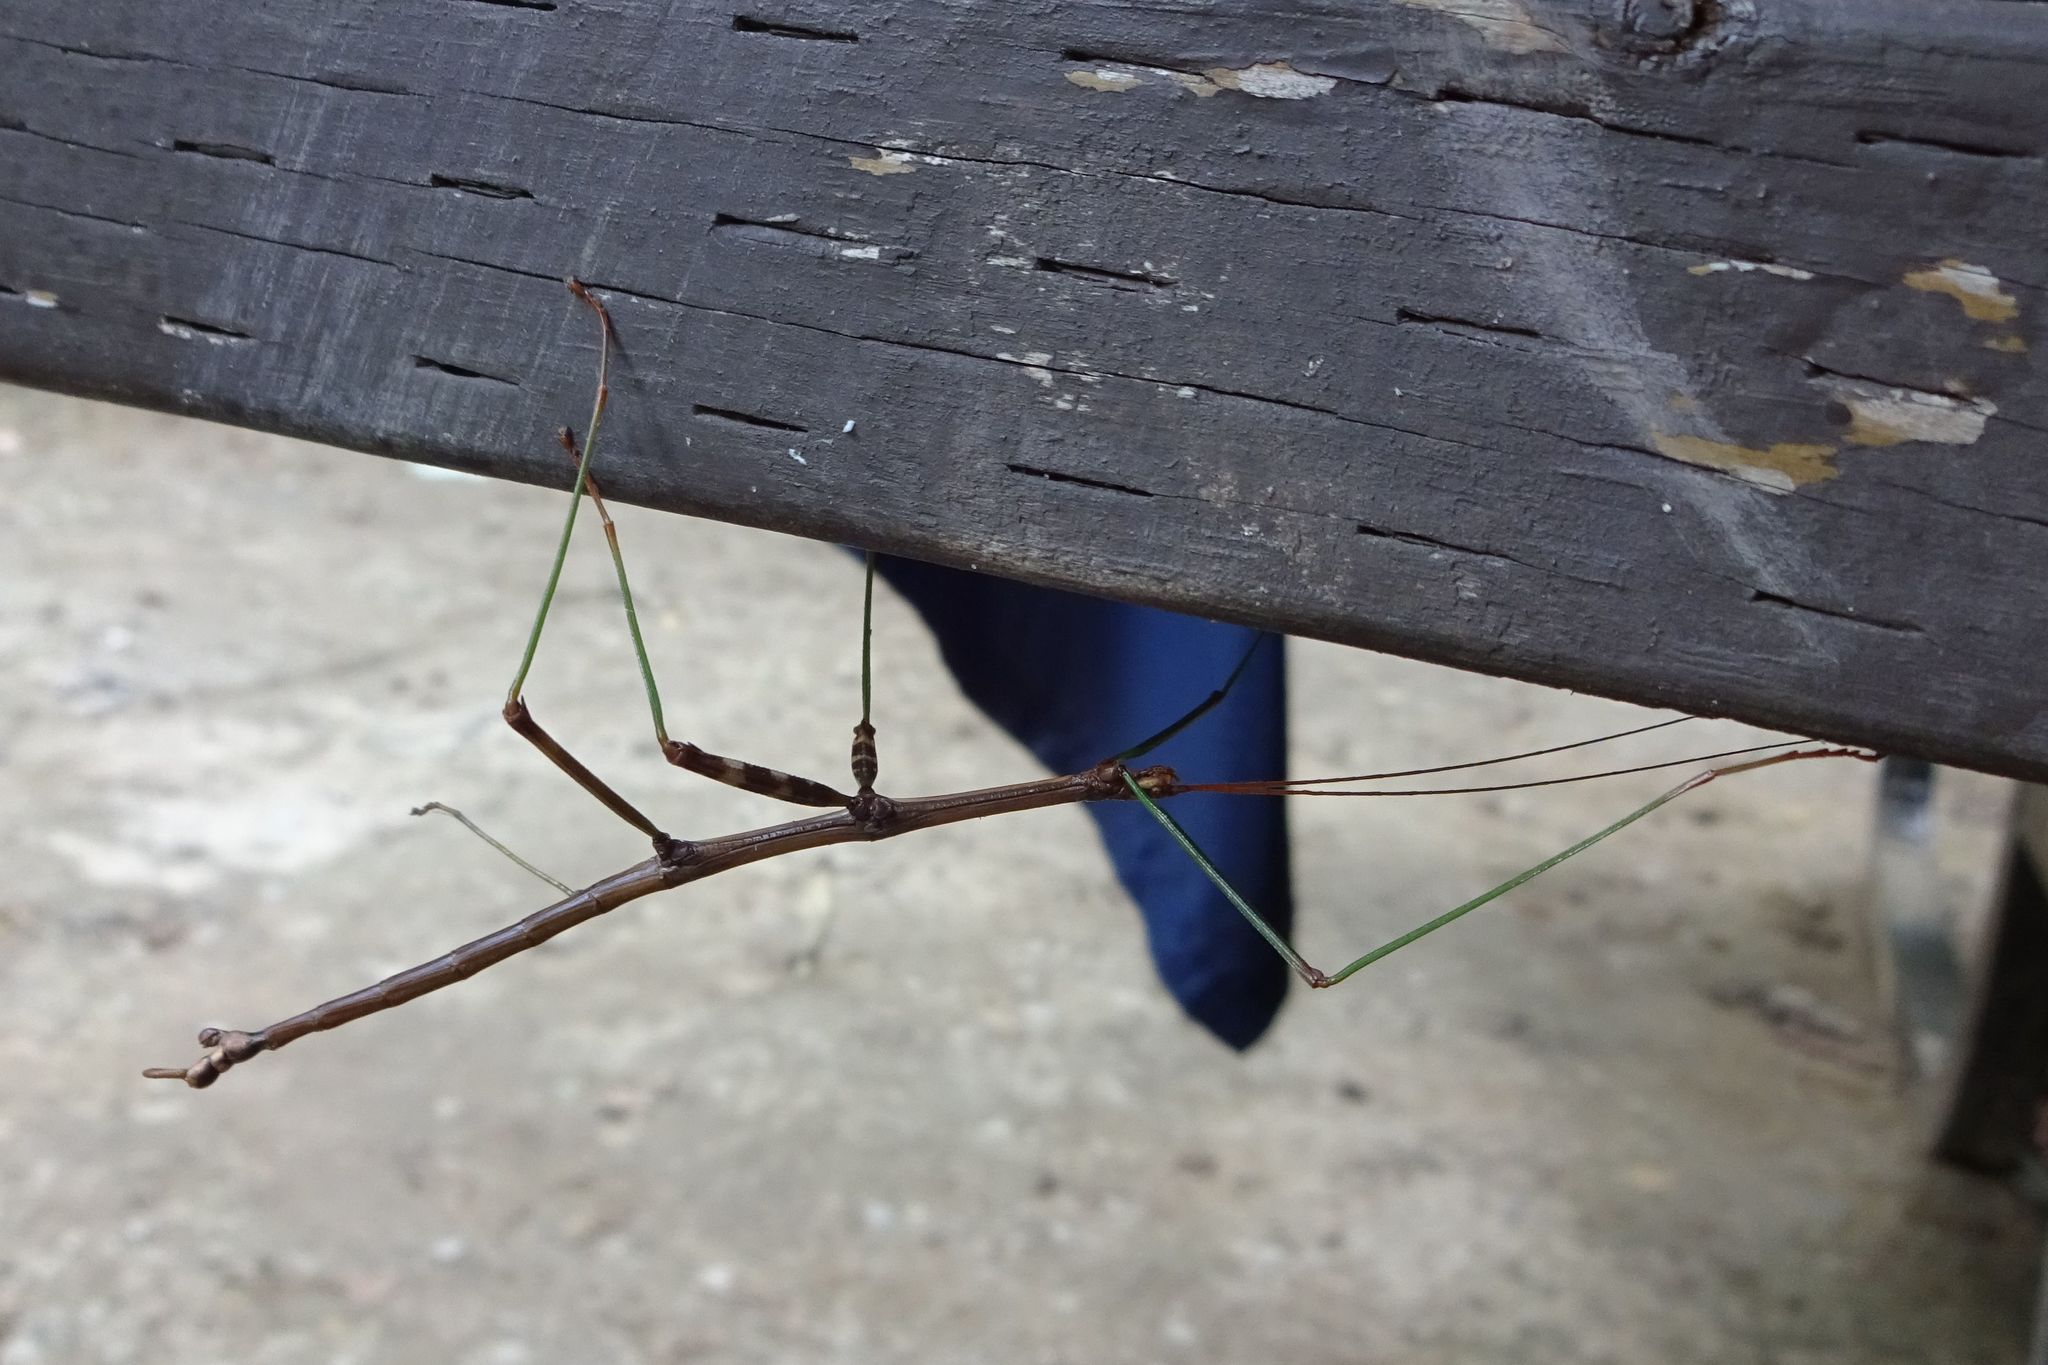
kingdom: Animalia
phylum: Arthropoda
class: Insecta
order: Phasmida
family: Diapheromeridae
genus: Diapheromera
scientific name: Diapheromera femorata
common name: Common american walkingstick
